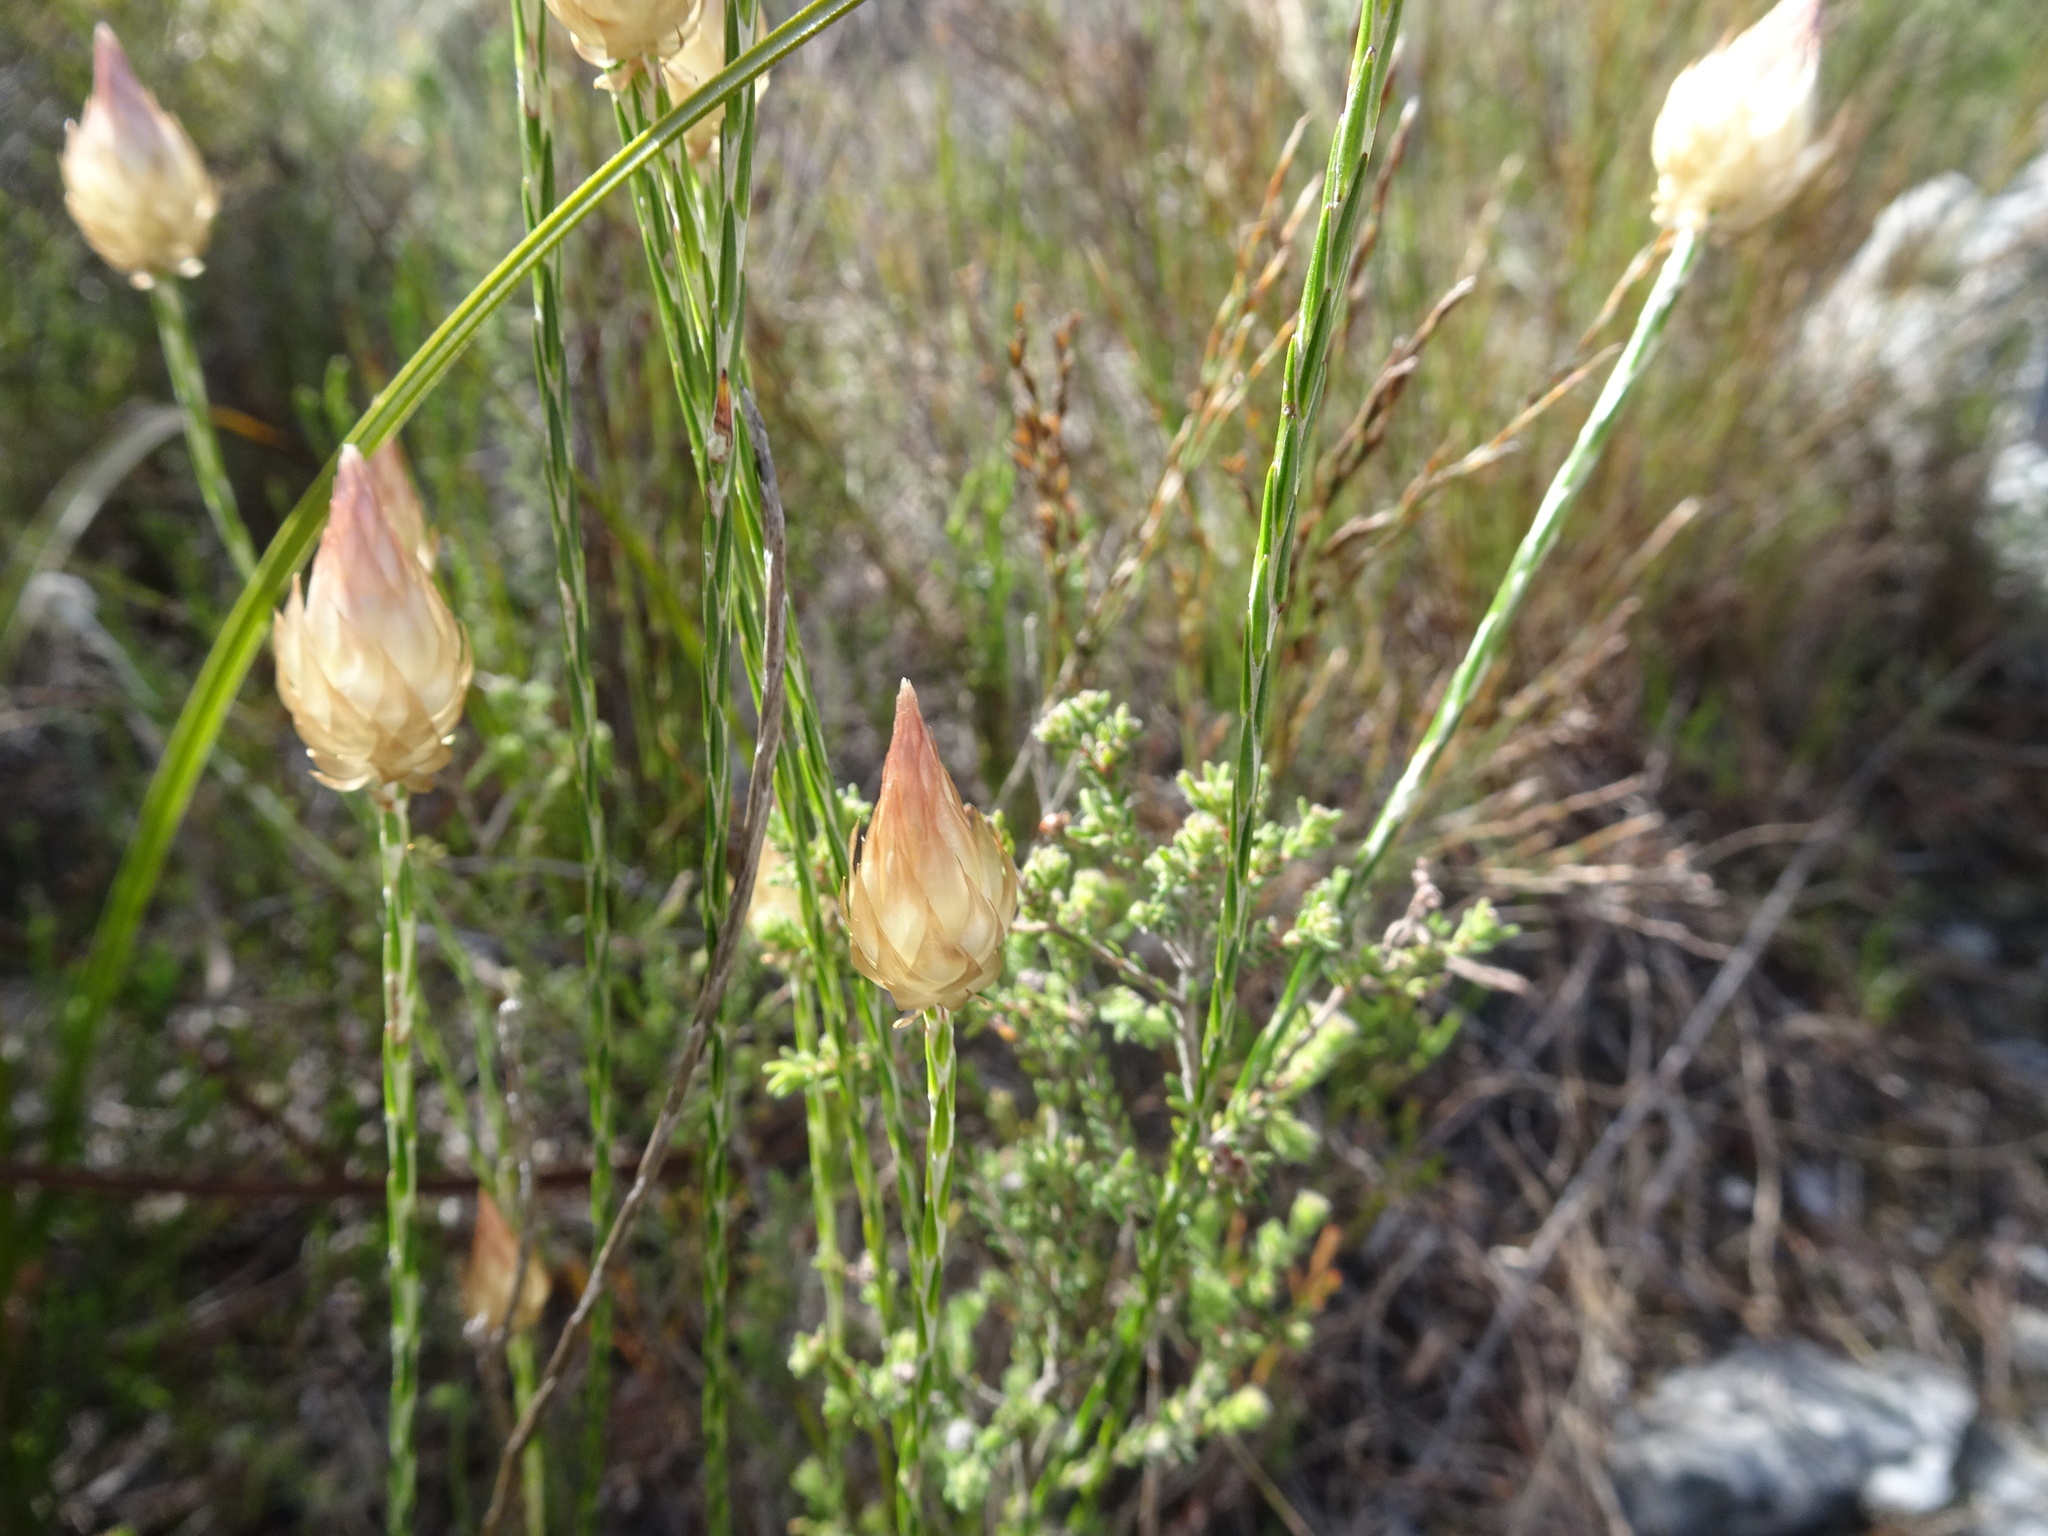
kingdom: Plantae
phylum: Tracheophyta
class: Magnoliopsida
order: Asterales
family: Asteraceae
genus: Edmondia
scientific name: Edmondia sesamoides
